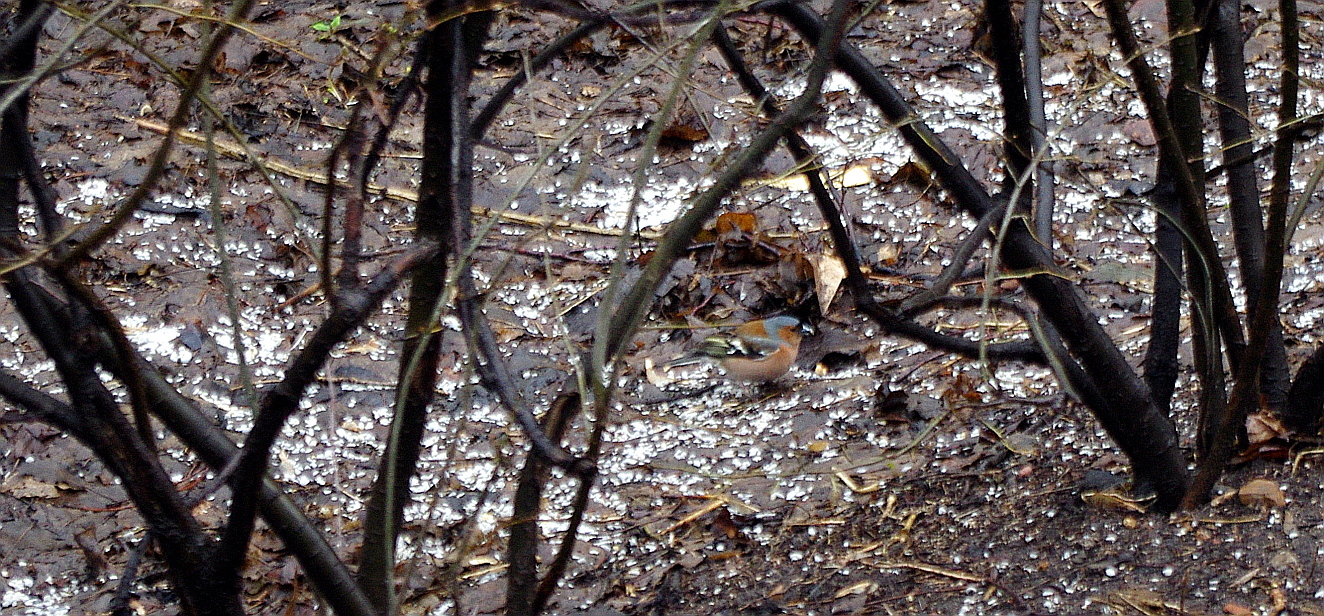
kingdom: Animalia
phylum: Chordata
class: Aves
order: Passeriformes
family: Fringillidae
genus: Fringilla
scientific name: Fringilla coelebs
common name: Common chaffinch
